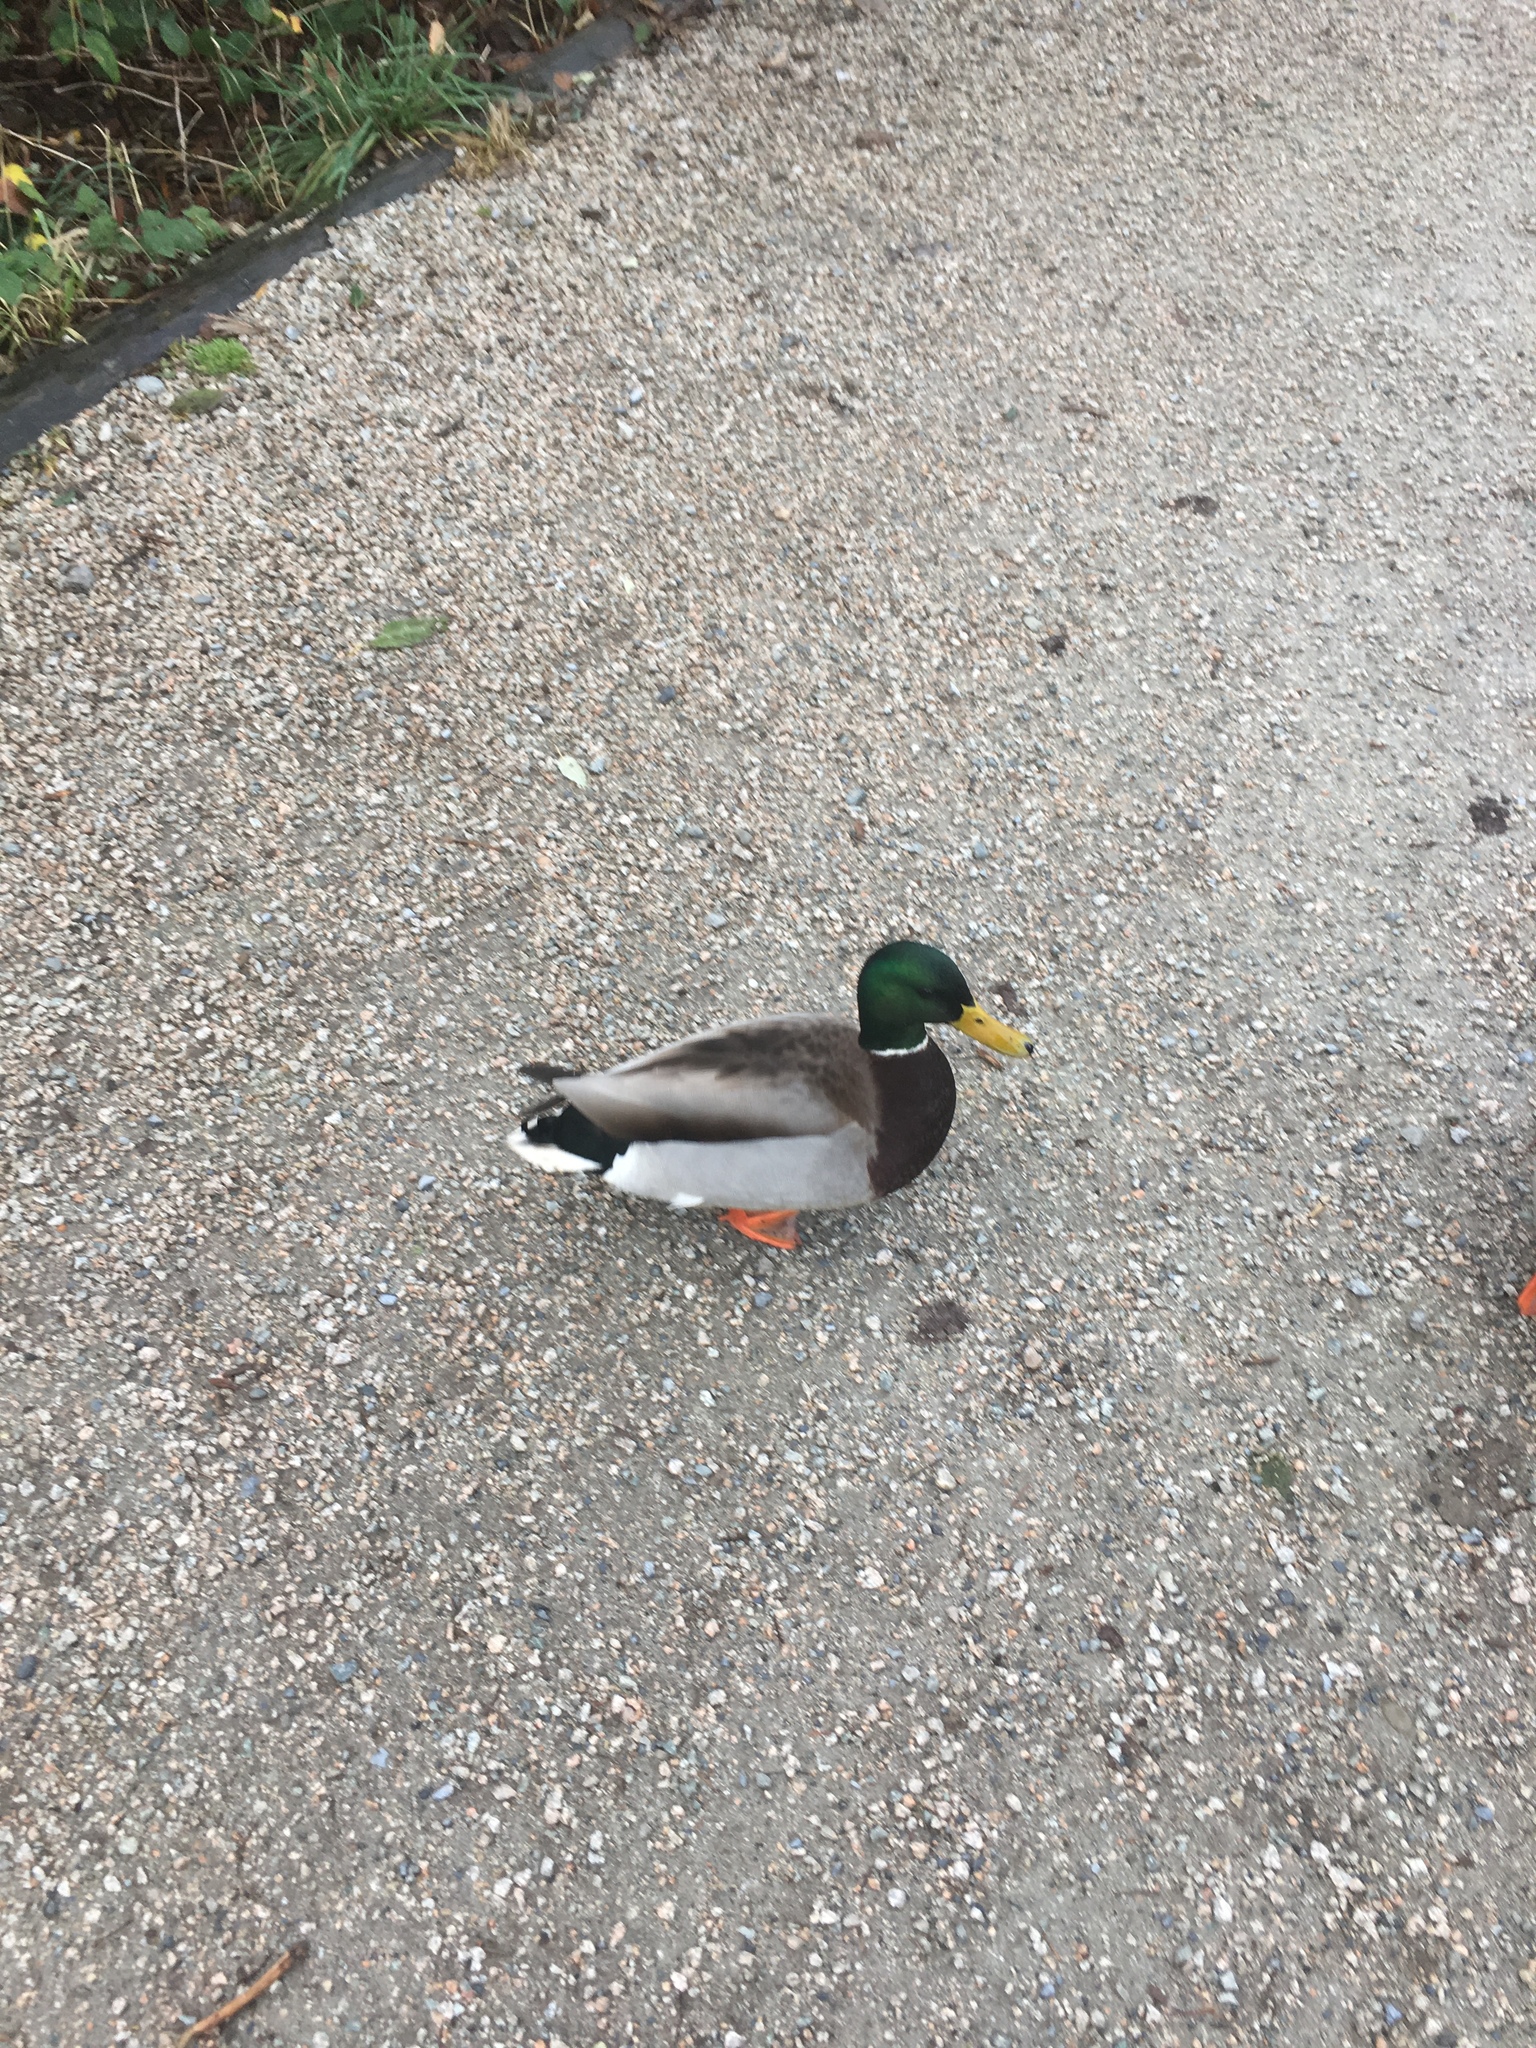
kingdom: Animalia
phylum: Chordata
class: Aves
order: Anseriformes
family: Anatidae
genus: Anas
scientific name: Anas platyrhynchos
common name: Mallard
